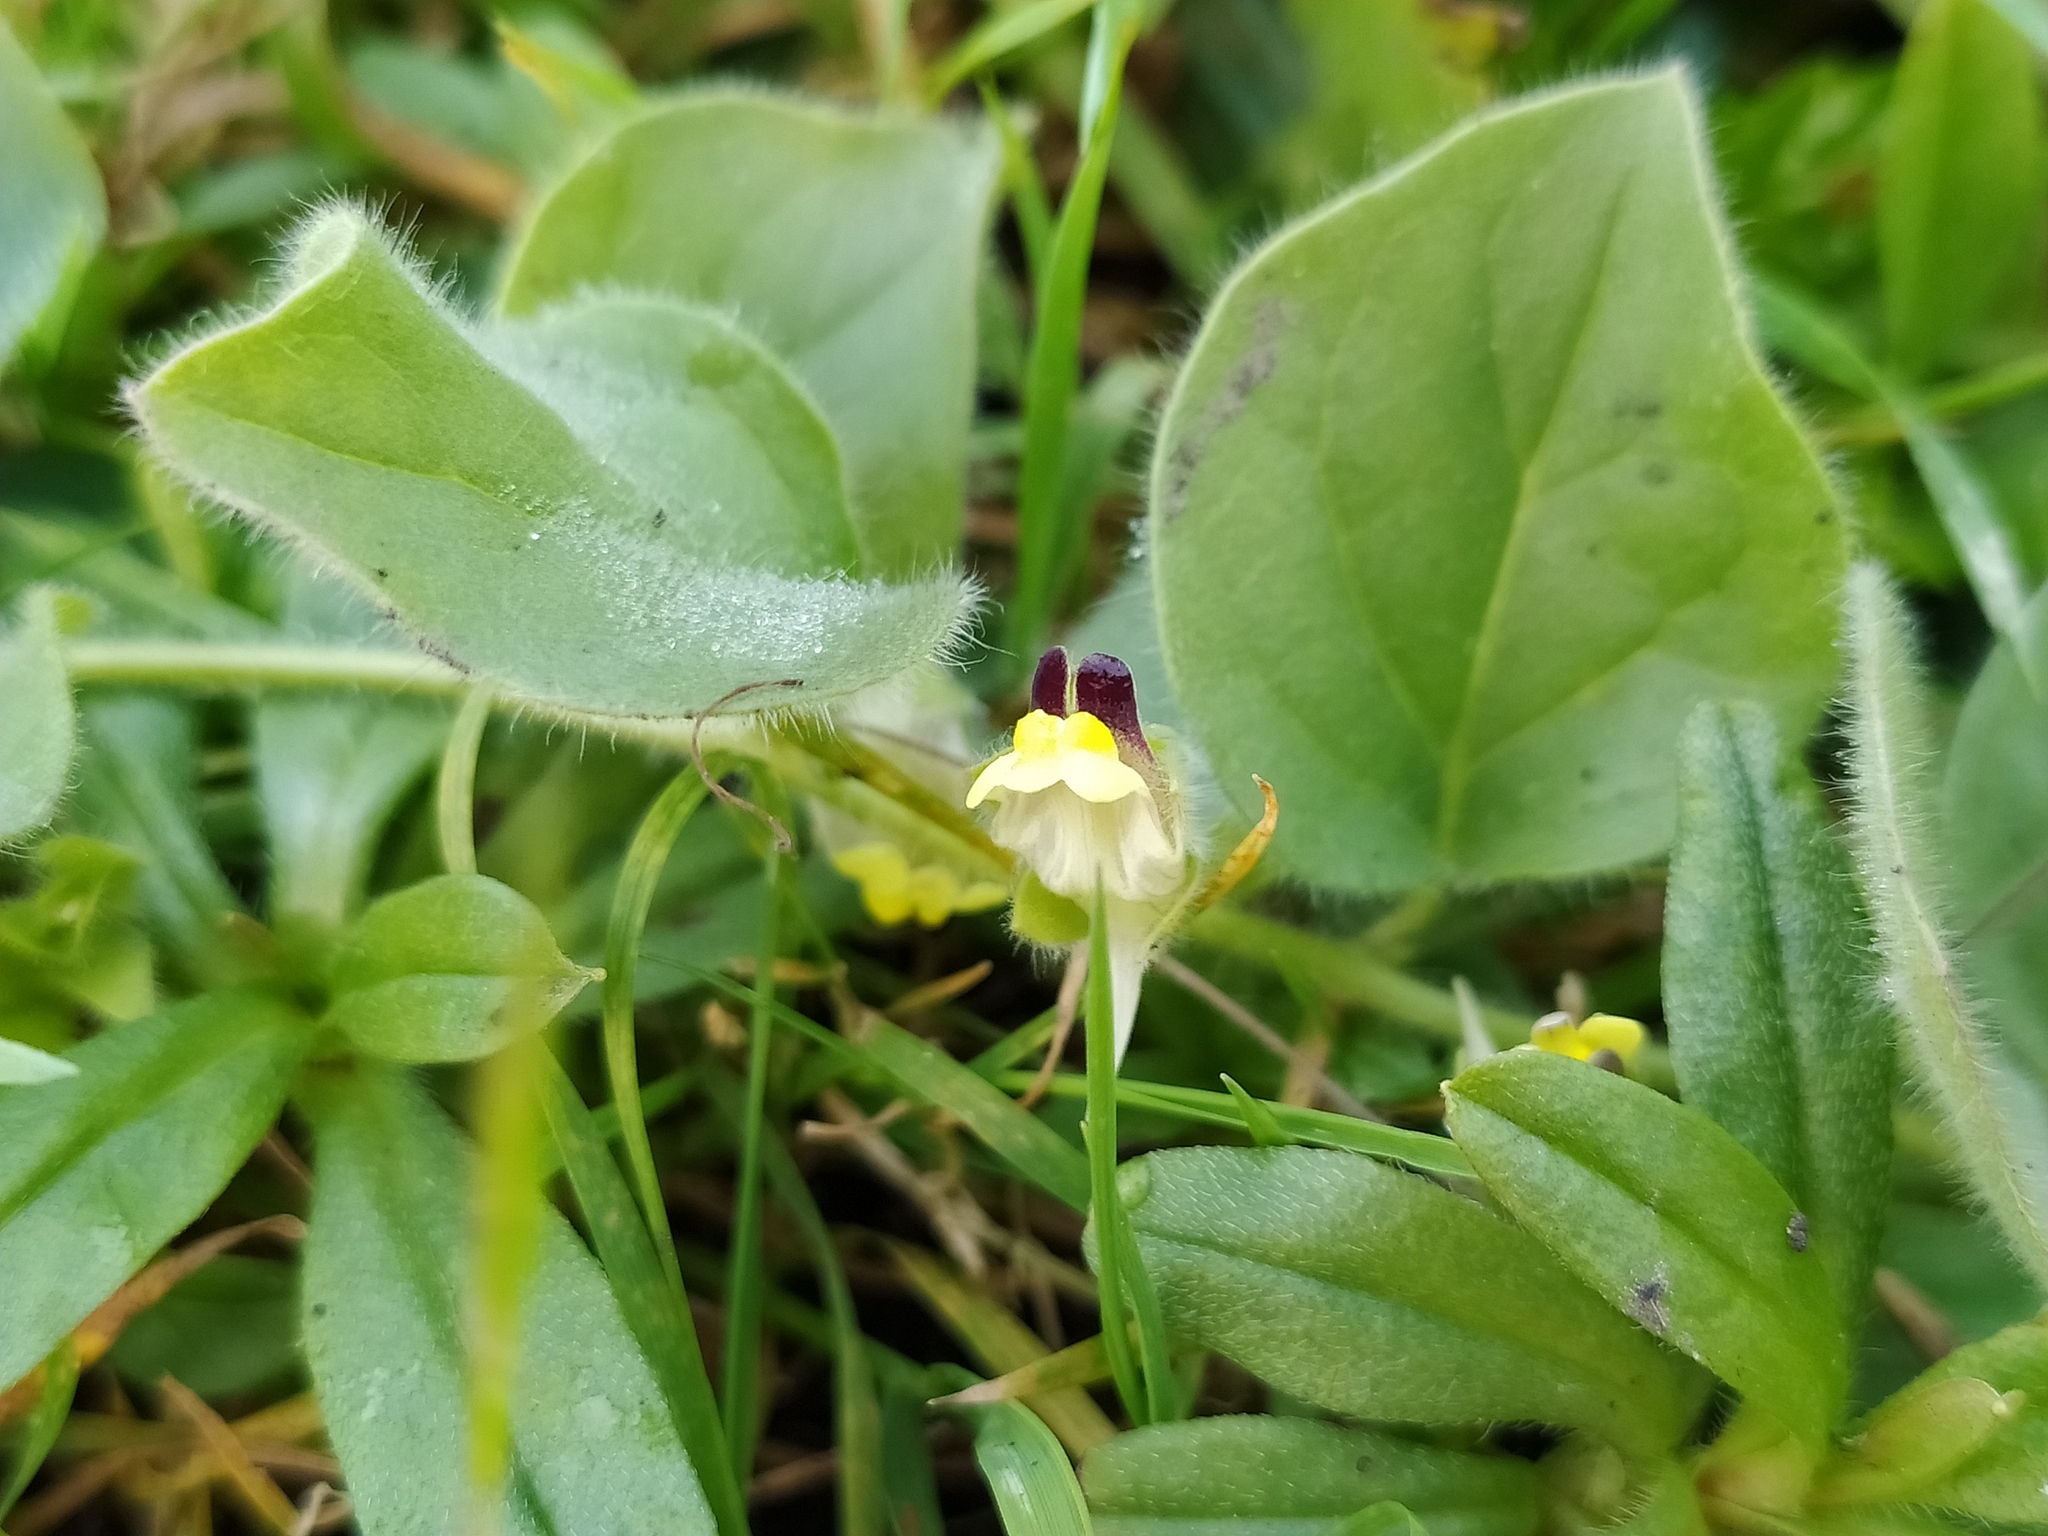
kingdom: Plantae
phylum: Tracheophyta
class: Magnoliopsida
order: Lamiales
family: Plantaginaceae
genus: Kickxia
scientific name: Kickxia spuria
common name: Round-leaved fluellen
